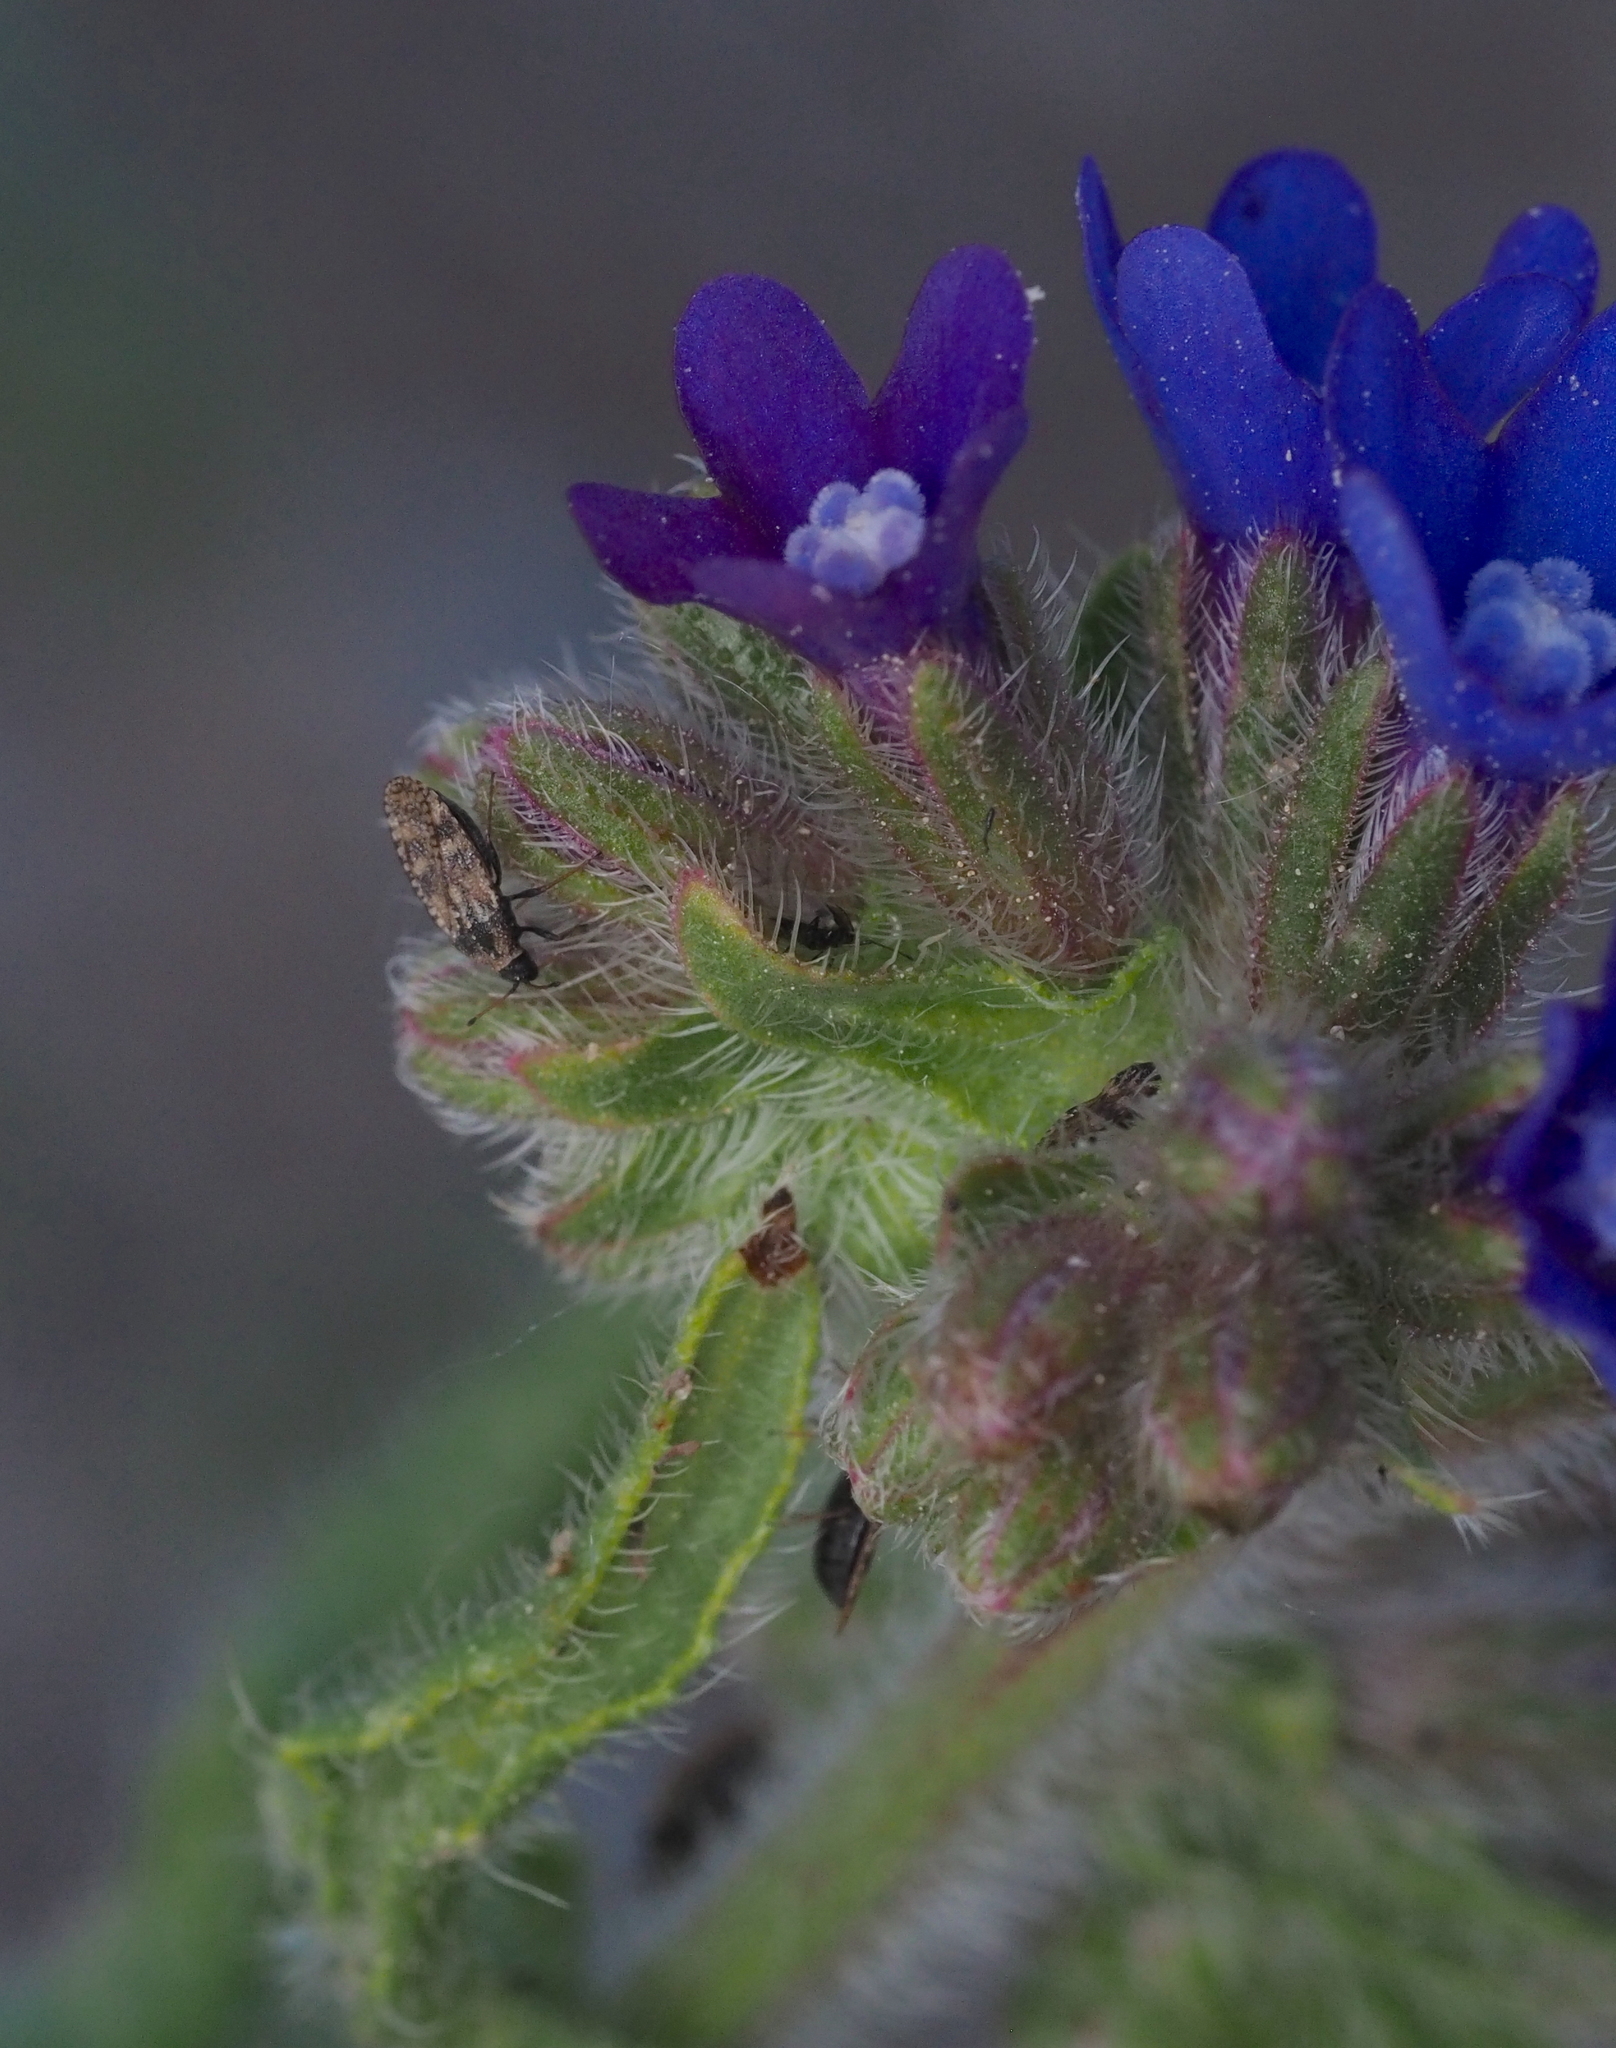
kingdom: Animalia
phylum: Arthropoda
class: Insecta
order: Hemiptera
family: Tingidae
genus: Dictyla
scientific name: Dictyla echii
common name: Lace bug
